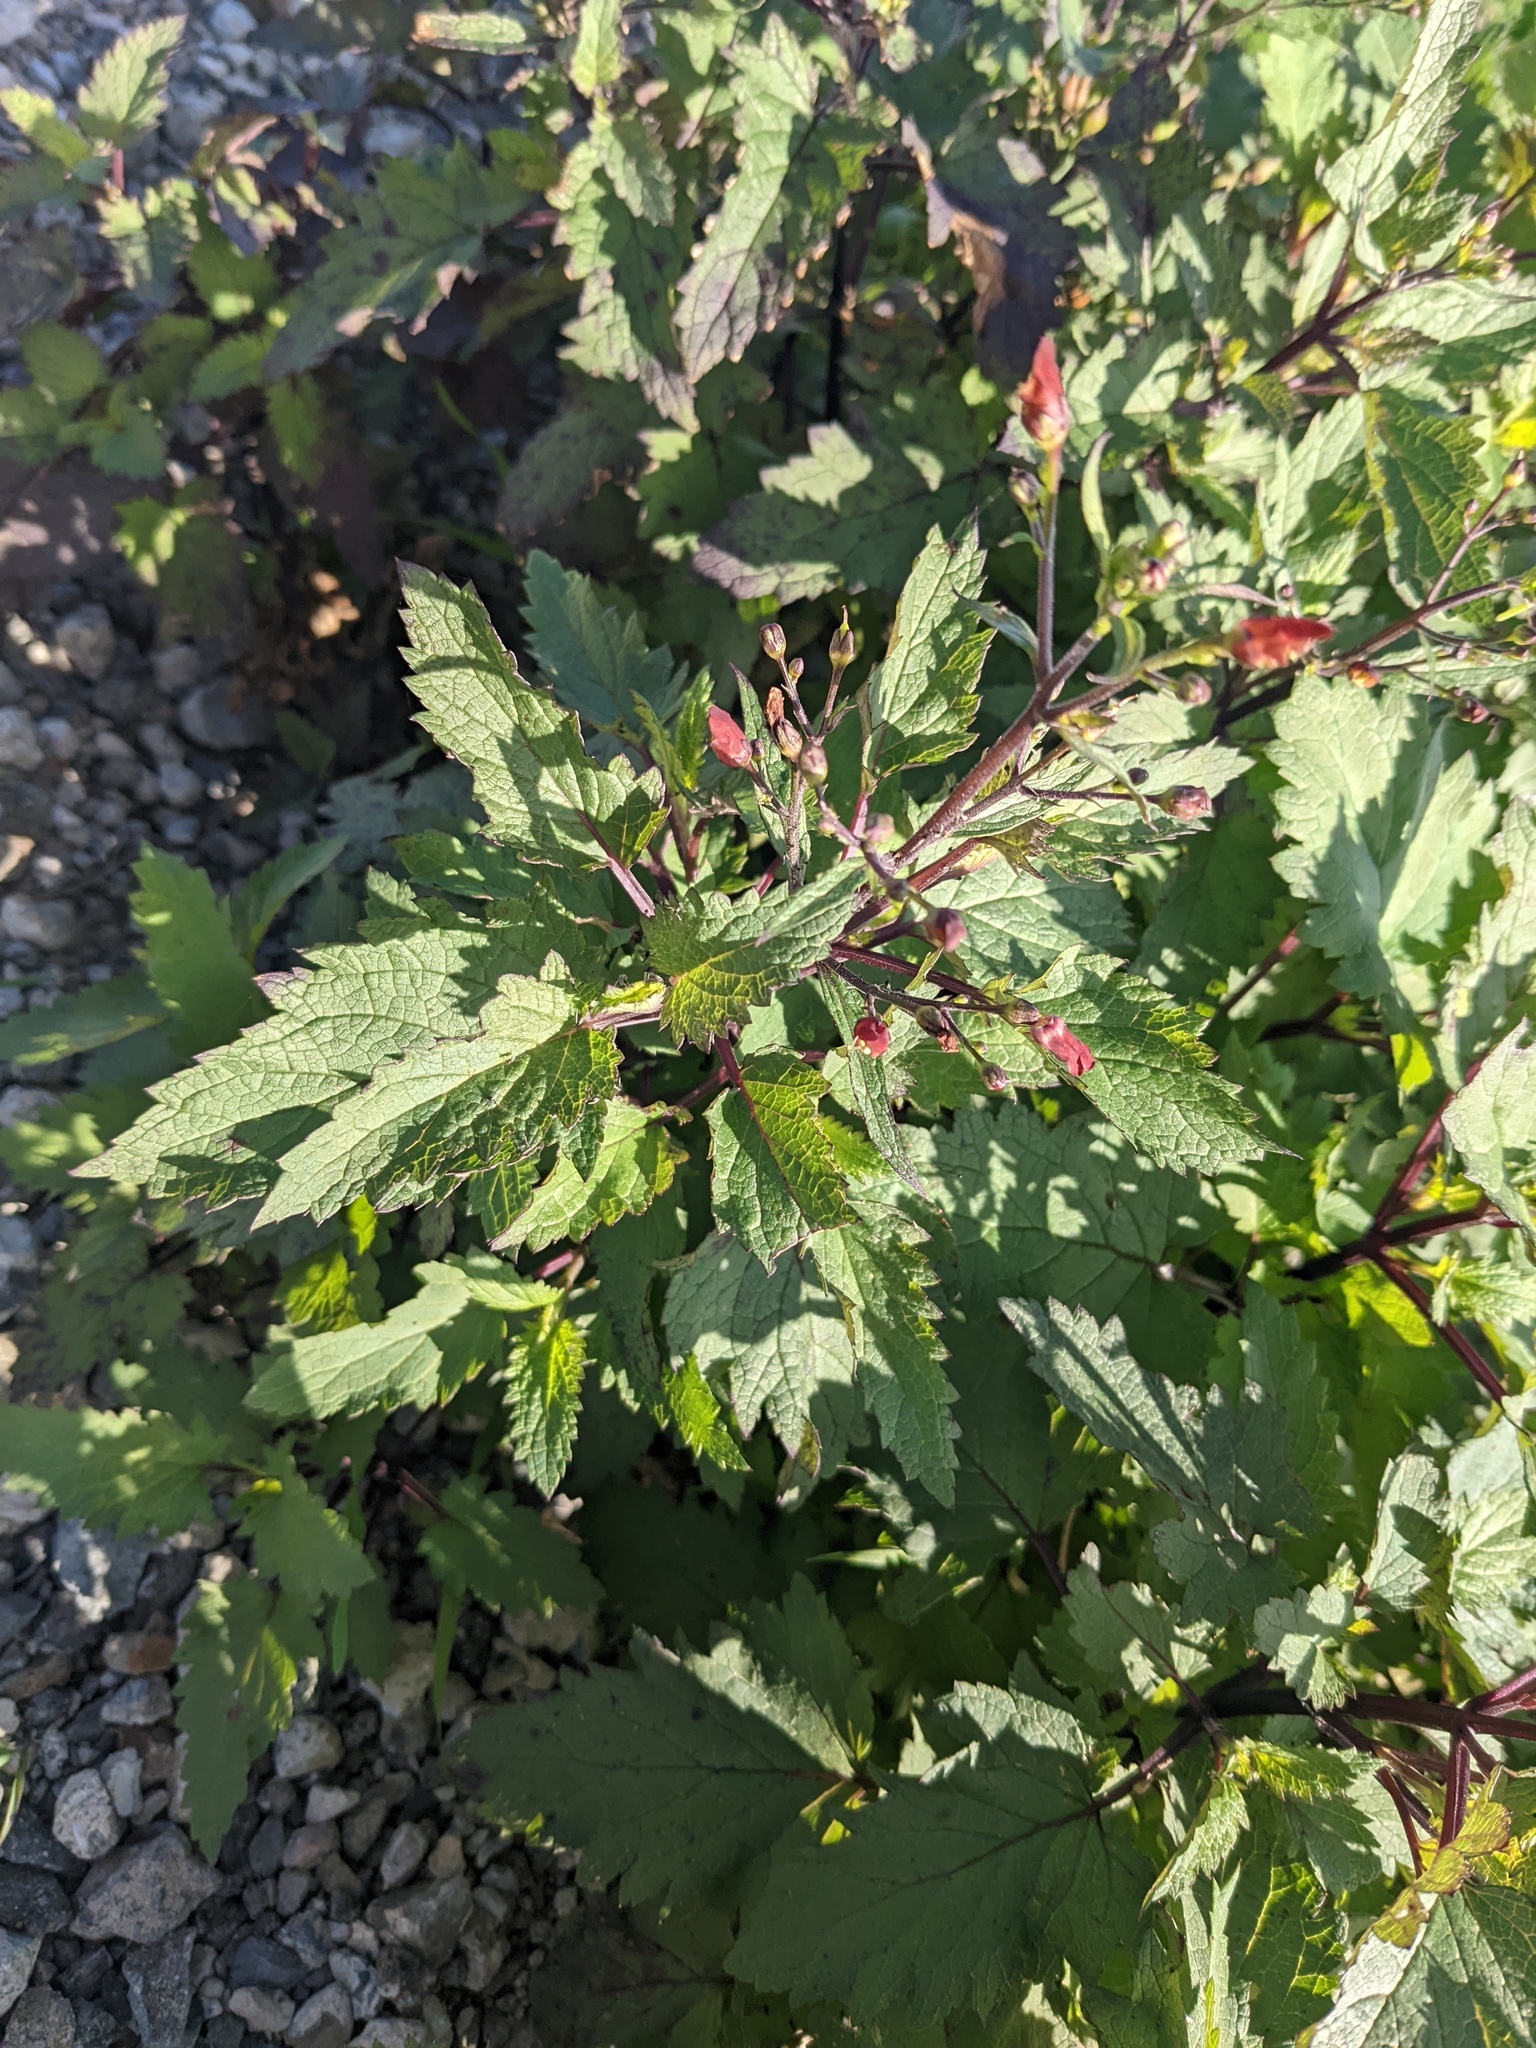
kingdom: Plantae
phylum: Tracheophyta
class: Magnoliopsida
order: Lamiales
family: Scrophulariaceae
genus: Scrophularia
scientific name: Scrophularia californica
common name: California figwort
